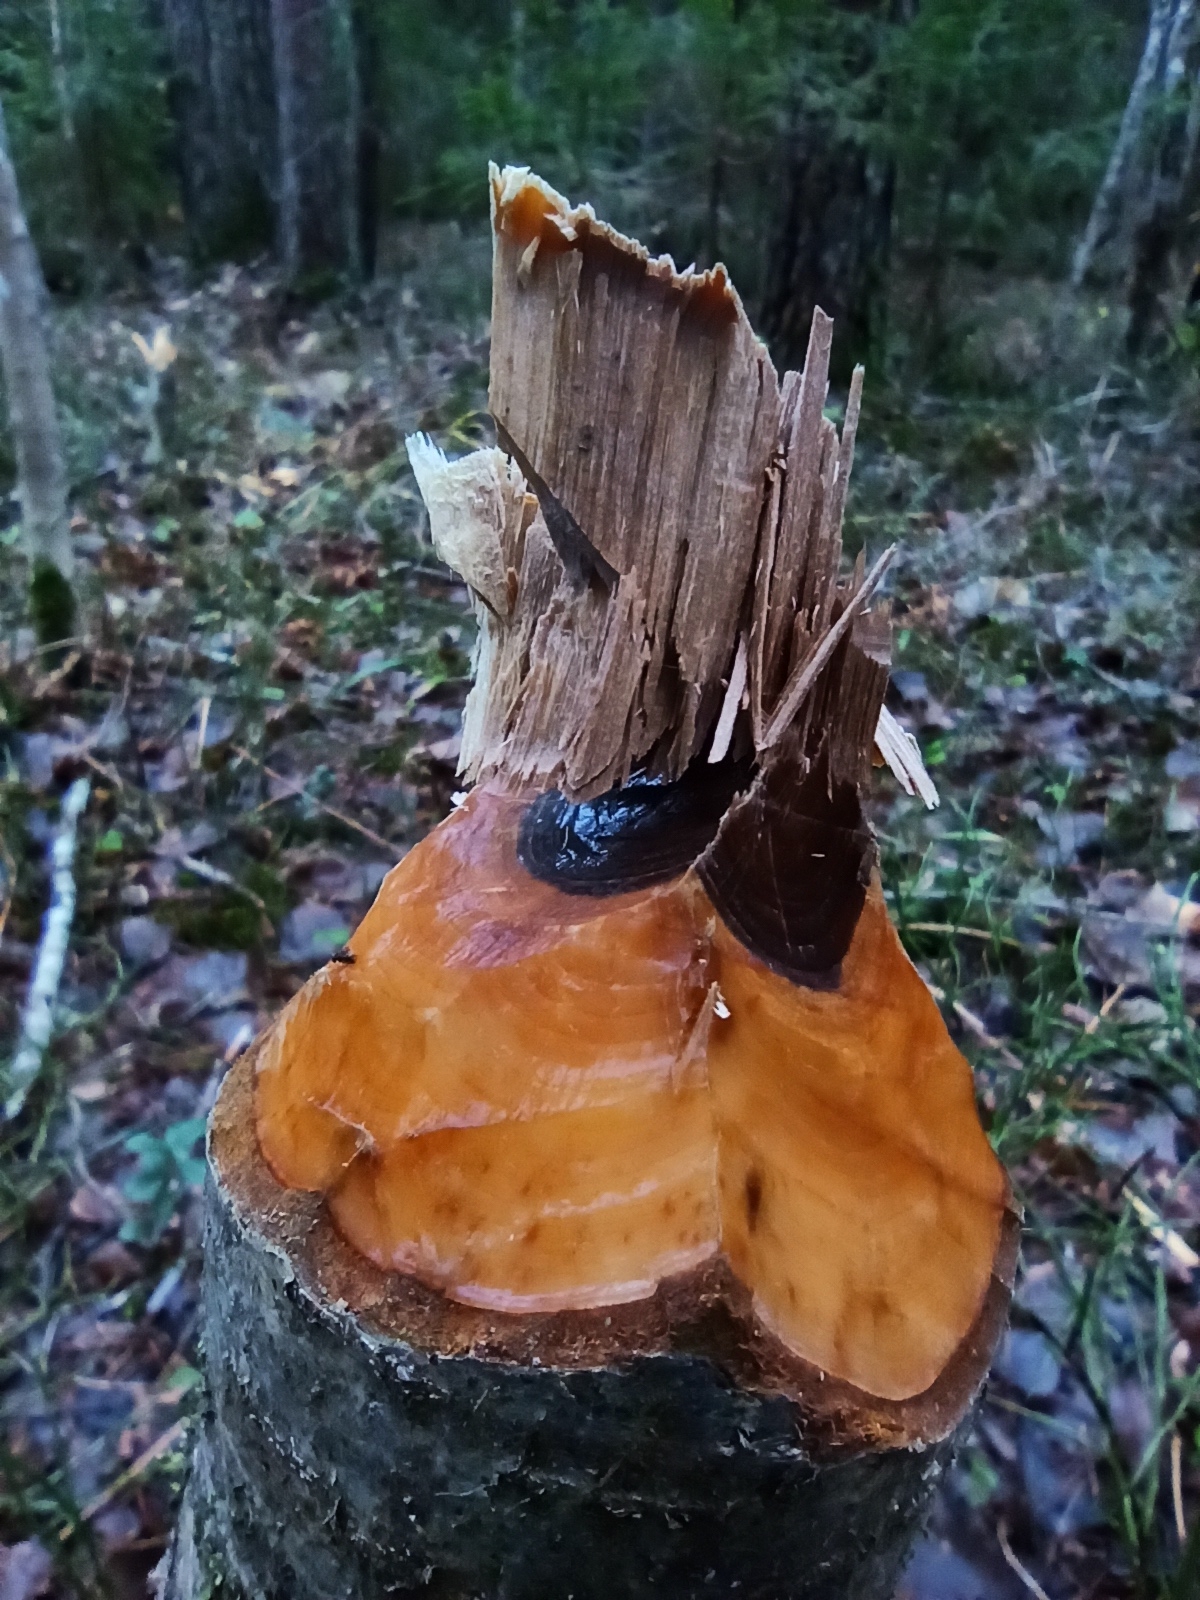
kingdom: Animalia
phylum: Chordata
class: Mammalia
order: Rodentia
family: Castoridae
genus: Castor
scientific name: Castor fiber
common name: Eurasian beaver
